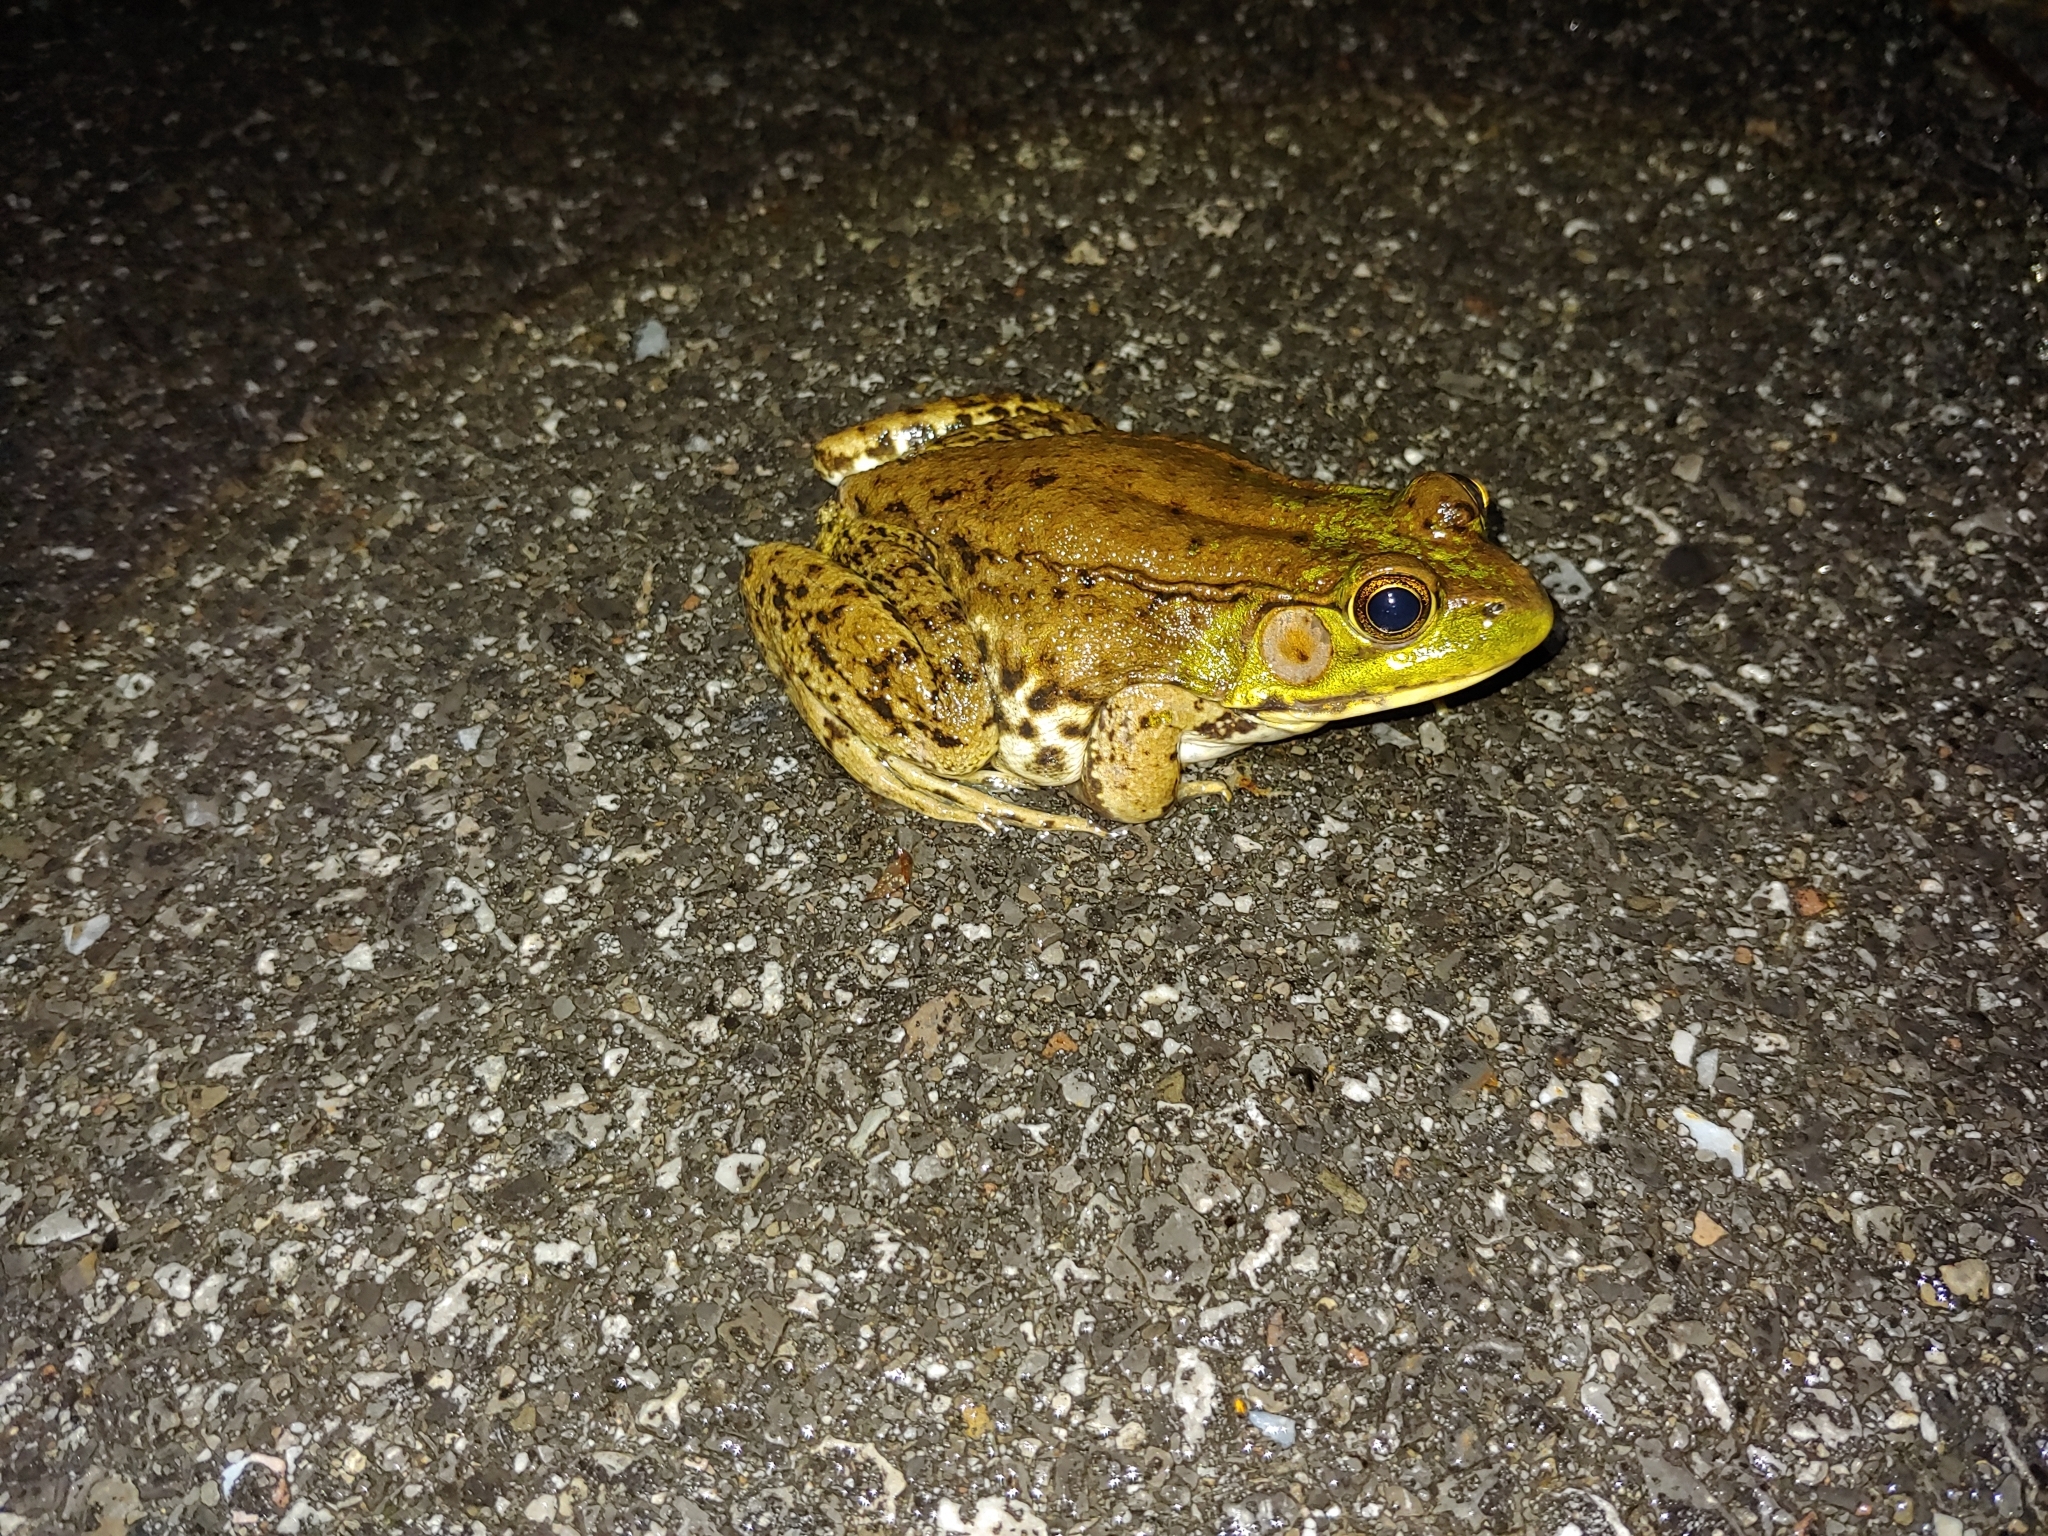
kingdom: Animalia
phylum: Chordata
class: Amphibia
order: Anura
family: Ranidae
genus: Lithobates
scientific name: Lithobates clamitans
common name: Green frog
